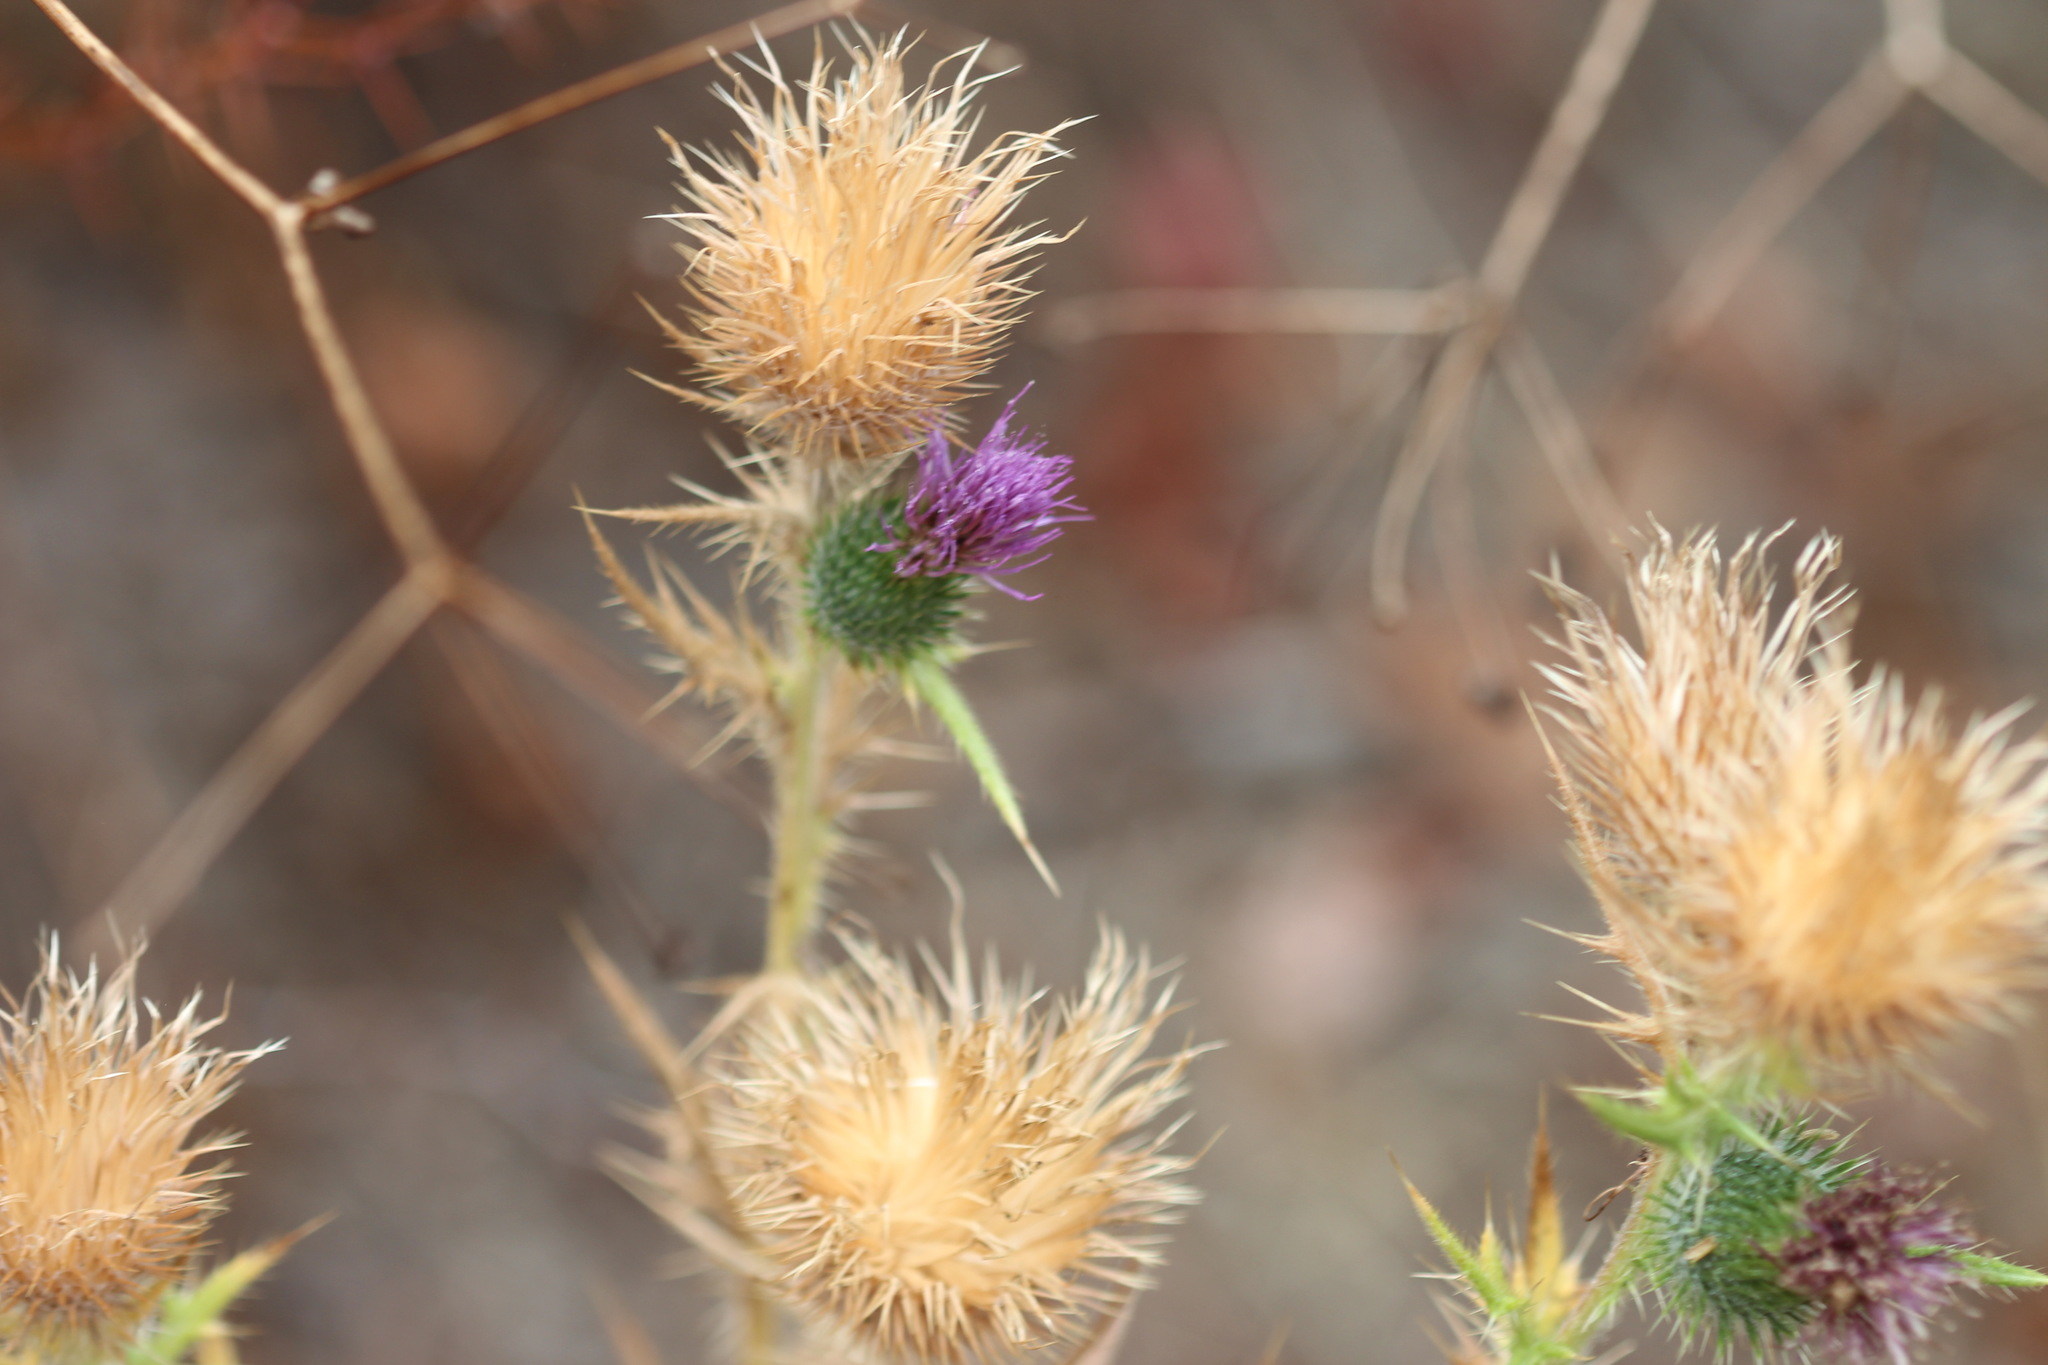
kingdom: Plantae
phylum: Tracheophyta
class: Magnoliopsida
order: Asterales
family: Asteraceae
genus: Cirsium
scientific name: Cirsium vulgare
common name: Bull thistle
